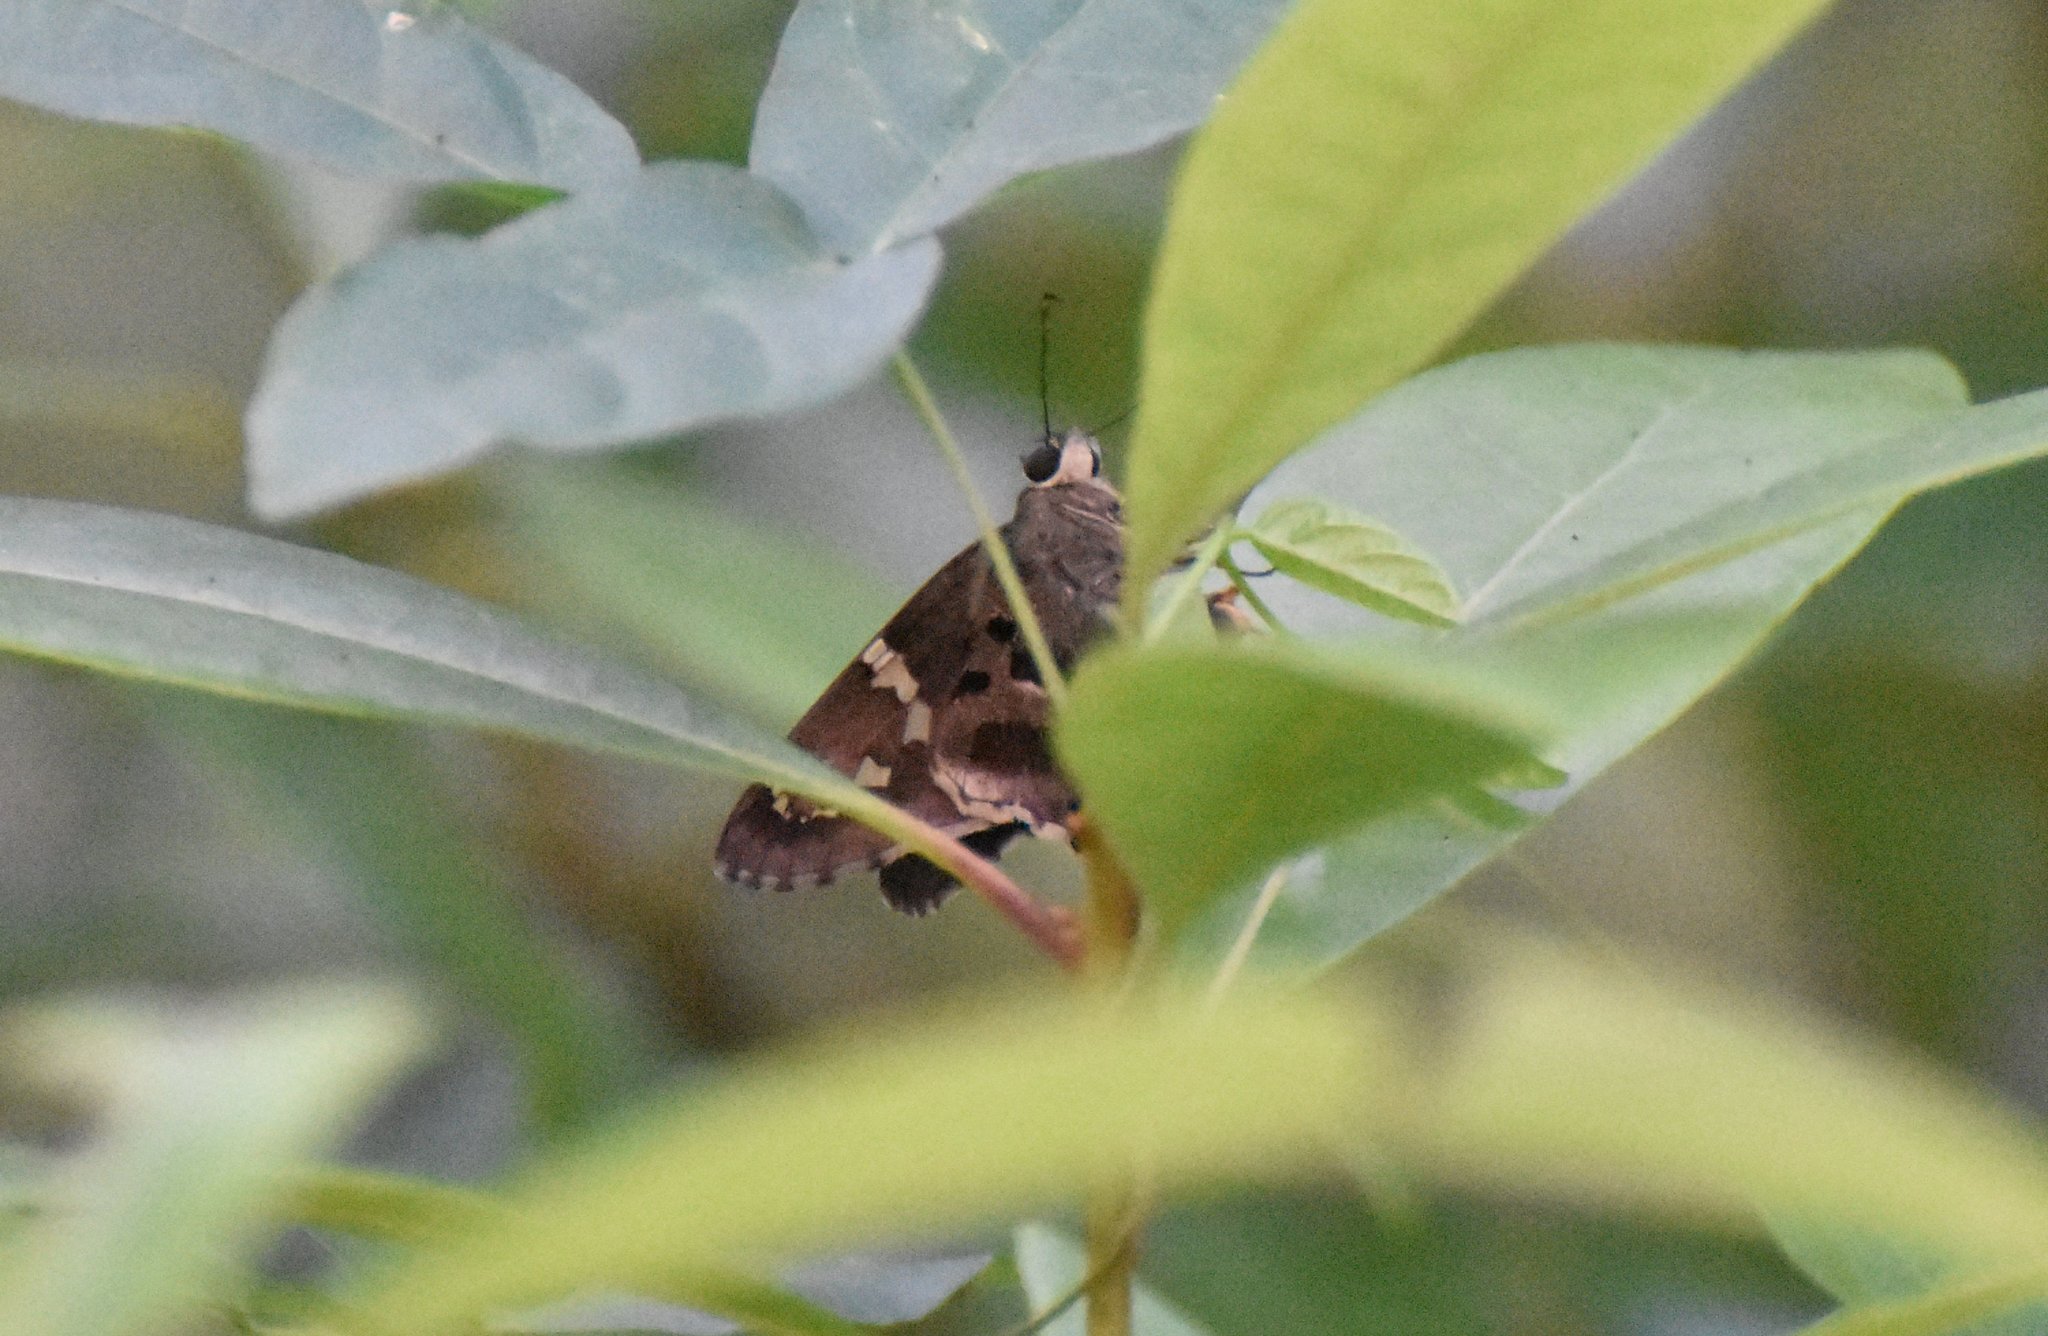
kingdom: Animalia
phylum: Arthropoda
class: Insecta
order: Lepidoptera
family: Hesperiidae
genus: Urbanus
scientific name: Urbanus proteus
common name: Long-tailed skipper
